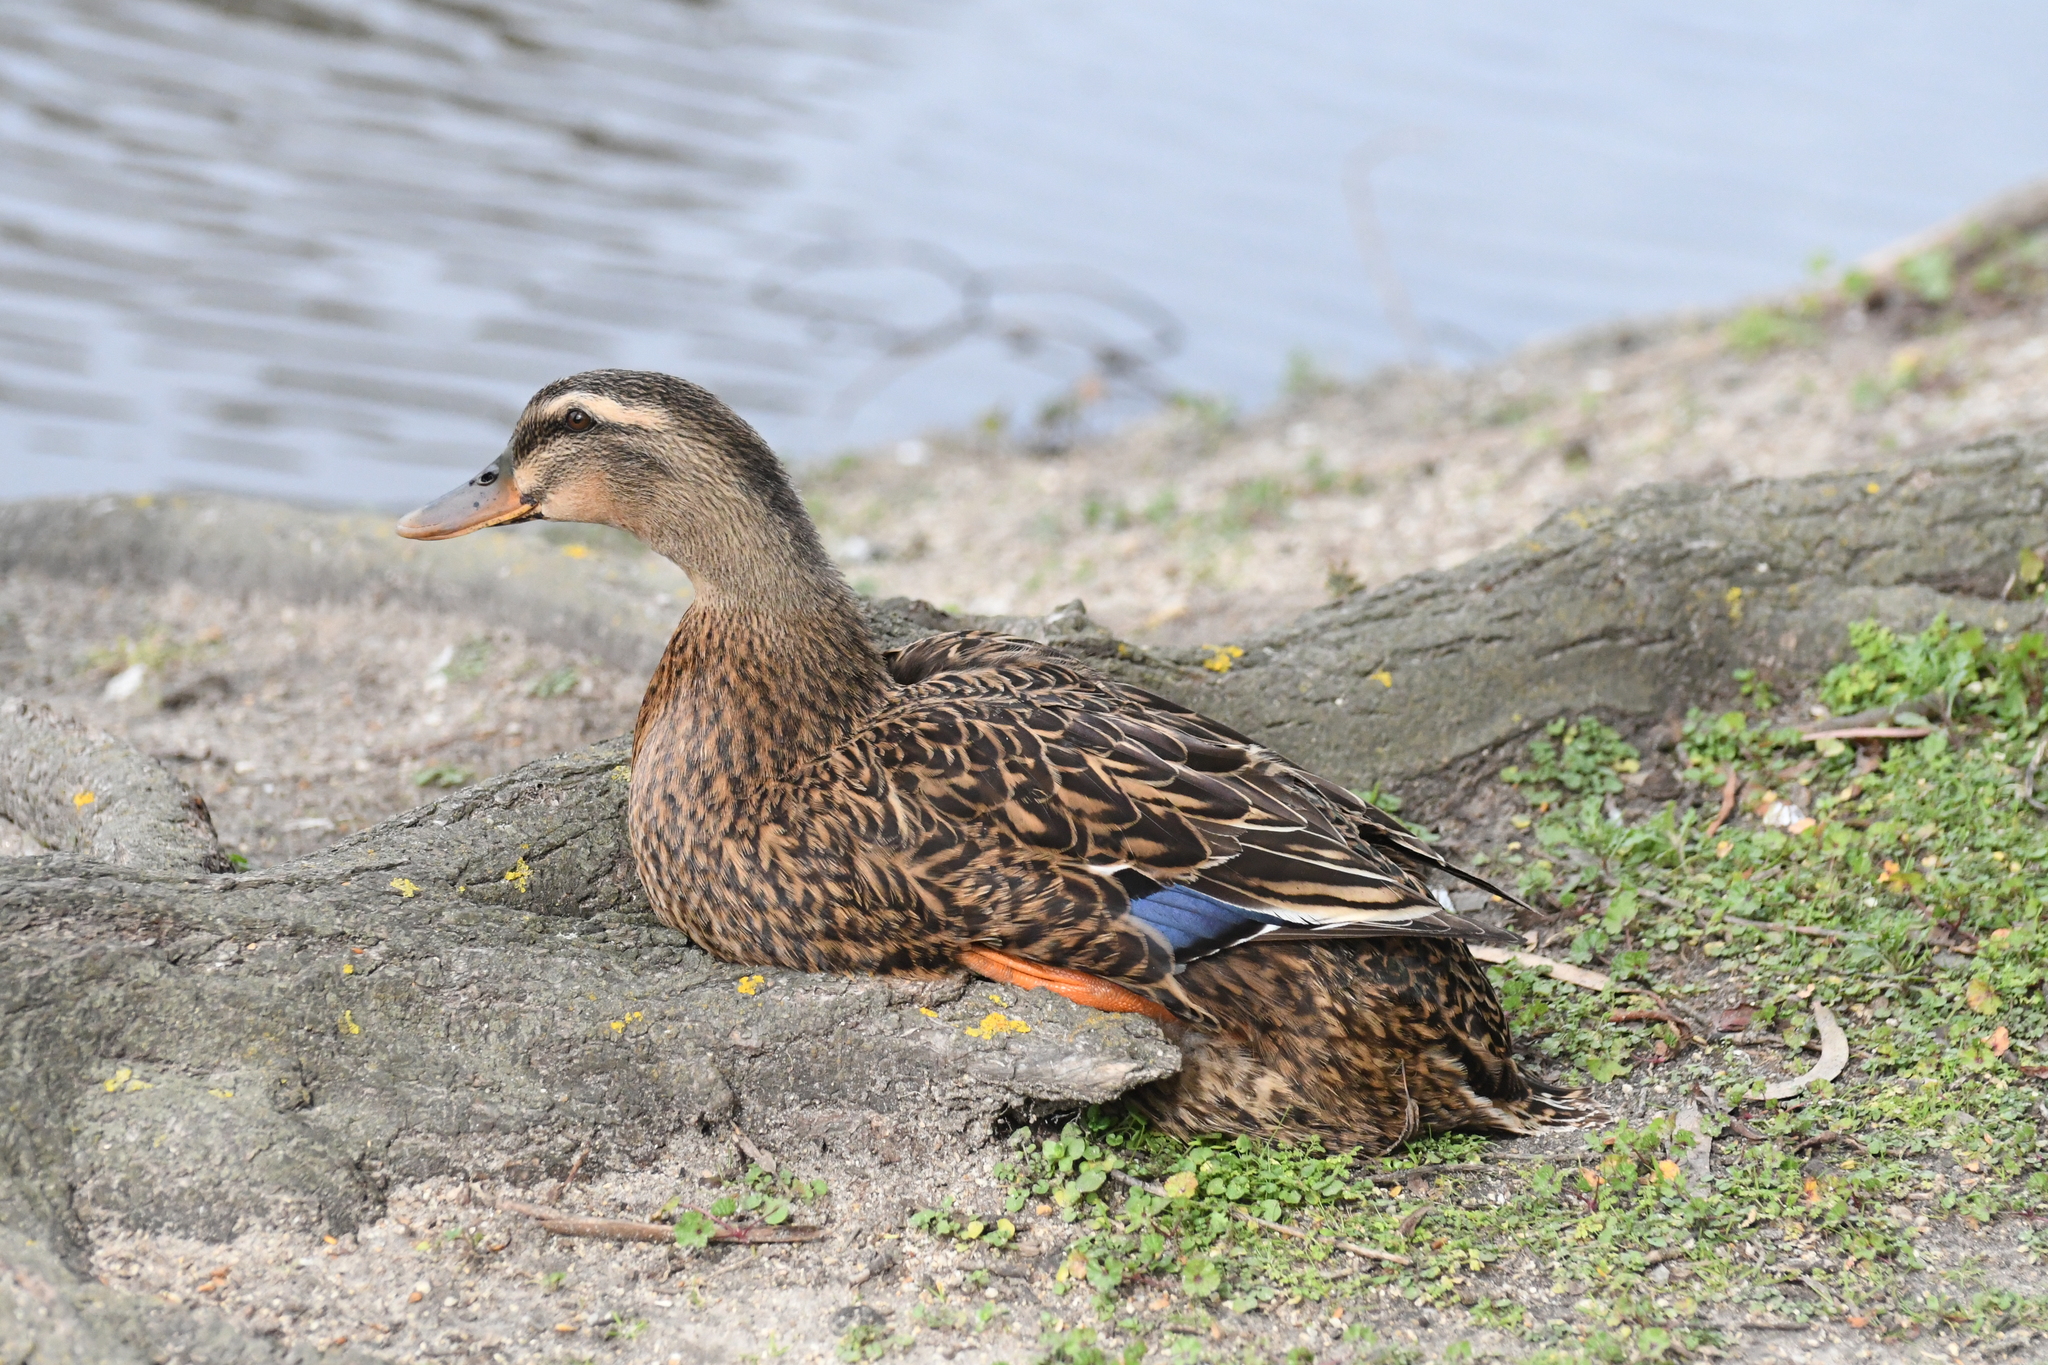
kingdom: Animalia
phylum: Chordata
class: Aves
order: Anseriformes
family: Anatidae
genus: Anas
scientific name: Anas platyrhynchos
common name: Mallard
